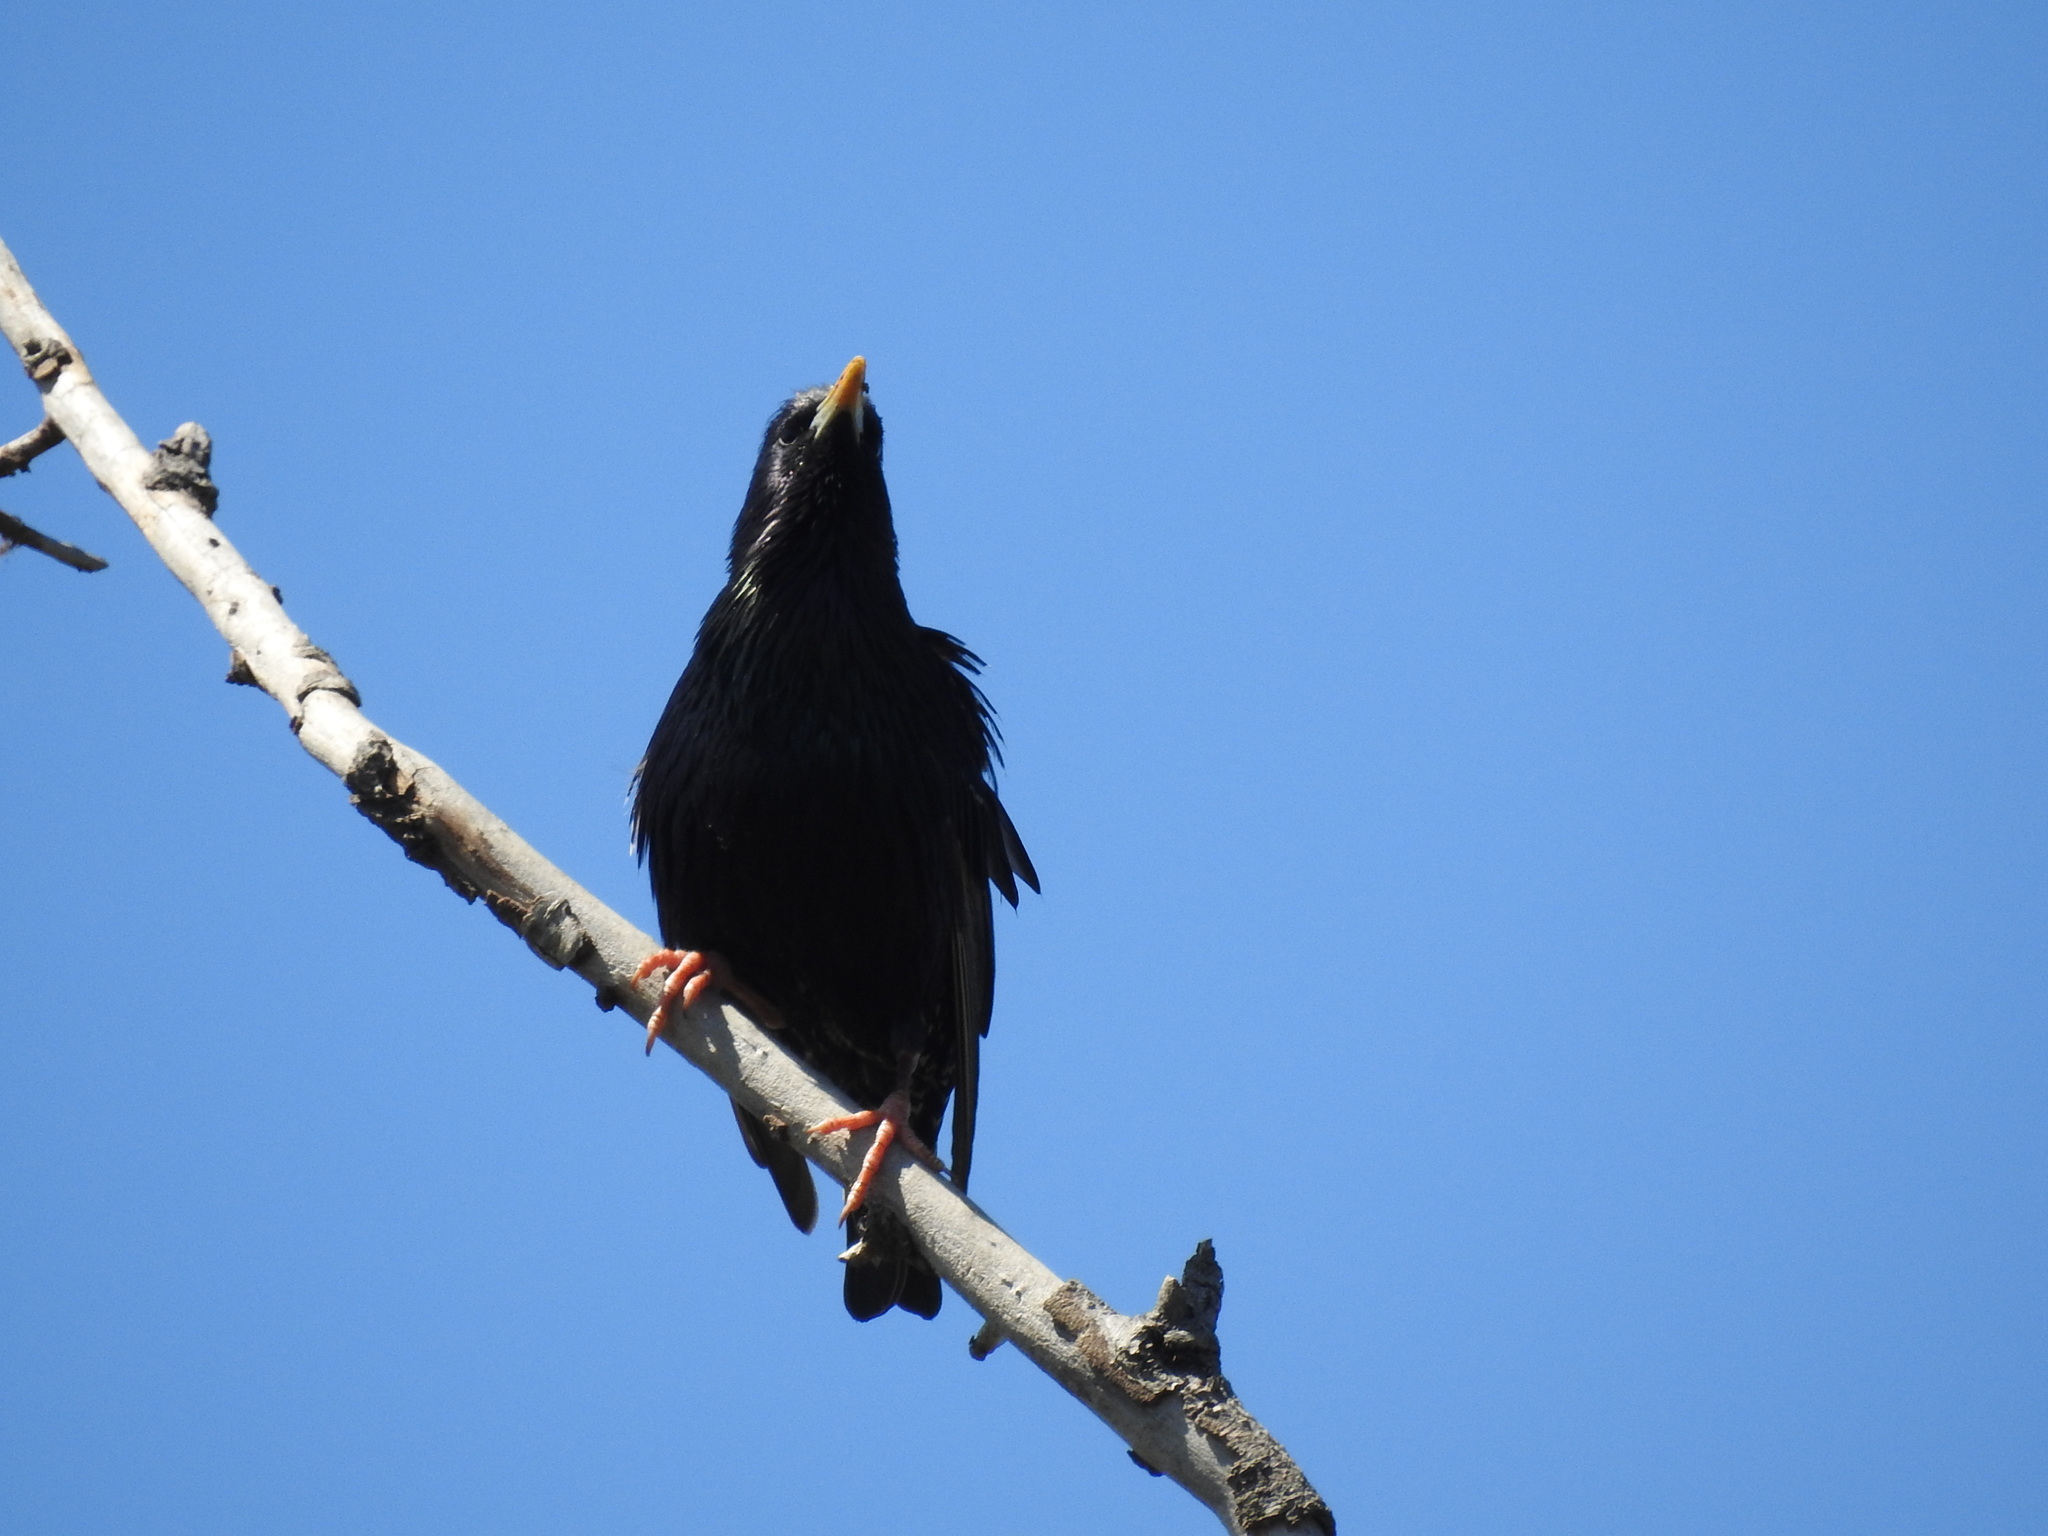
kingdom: Animalia
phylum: Chordata
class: Aves
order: Passeriformes
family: Sturnidae
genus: Sturnus
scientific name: Sturnus vulgaris
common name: Common starling
